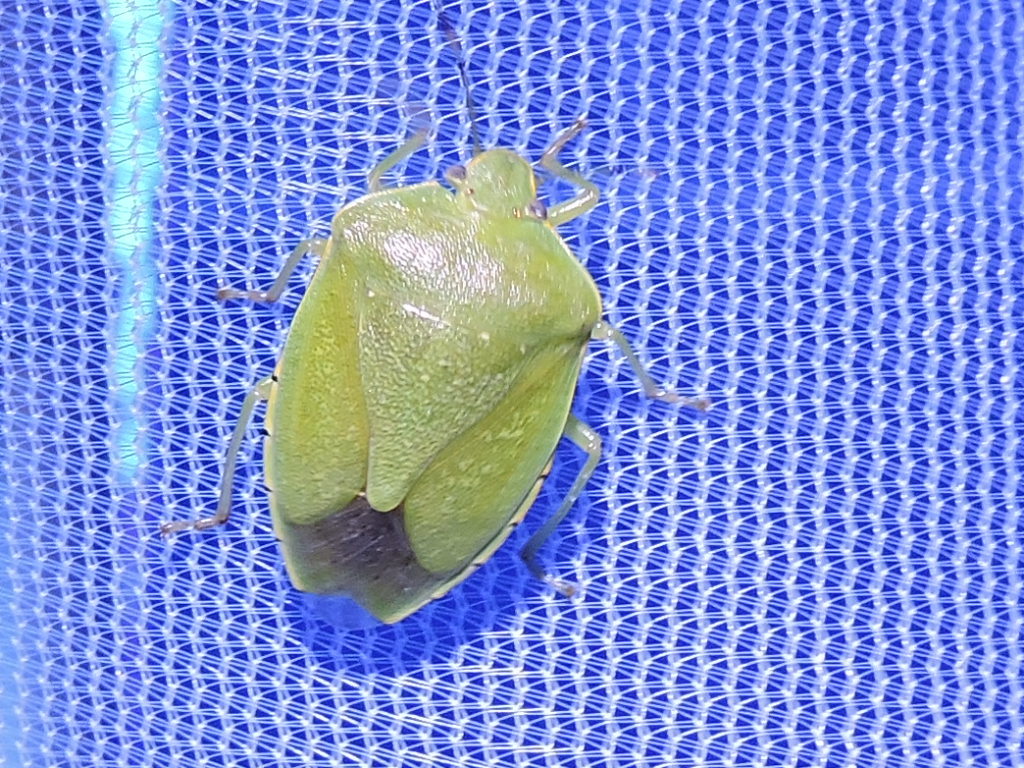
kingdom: Animalia
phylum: Arthropoda
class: Insecta
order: Hemiptera
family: Pentatomidae
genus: Chinavia
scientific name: Chinavia hilaris
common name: Green stink bug
